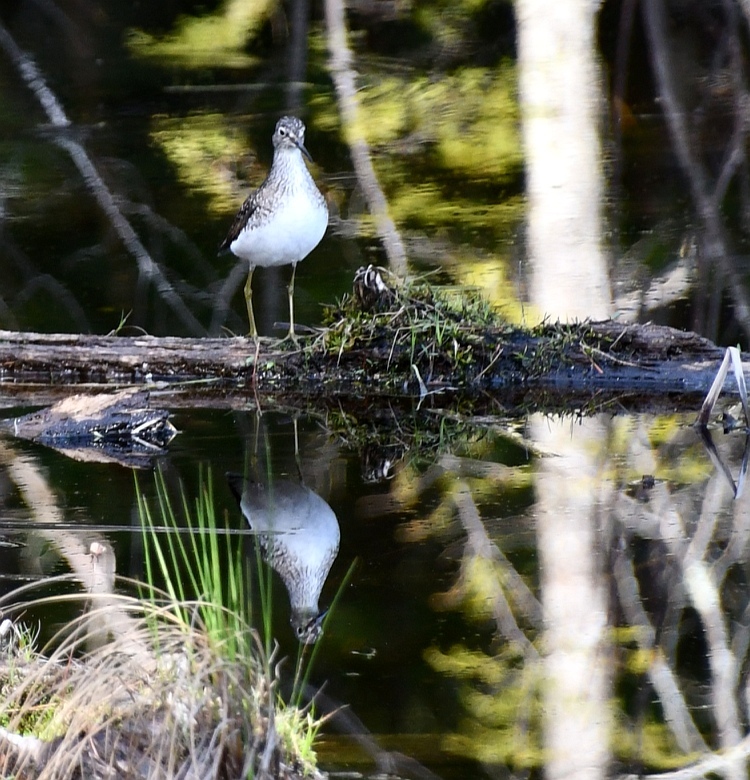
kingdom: Animalia
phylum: Chordata
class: Aves
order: Charadriiformes
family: Scolopacidae
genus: Tringa
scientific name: Tringa solitaria
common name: Solitary sandpiper
